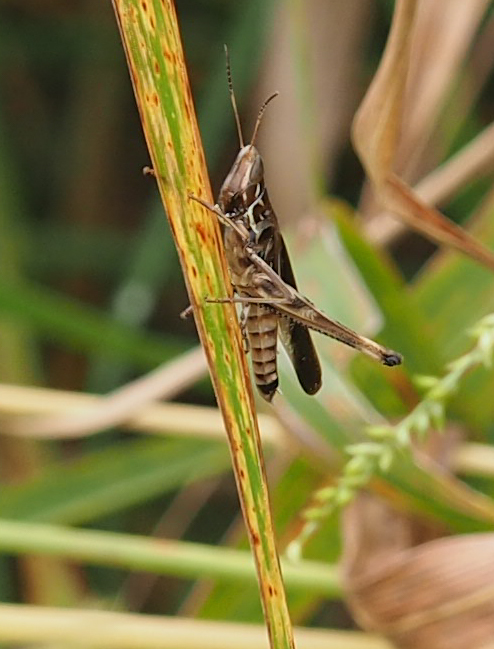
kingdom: Animalia
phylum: Arthropoda
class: Insecta
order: Orthoptera
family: Acrididae
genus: Syrbula
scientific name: Syrbula admirabilis
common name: Handsome grasshopper
